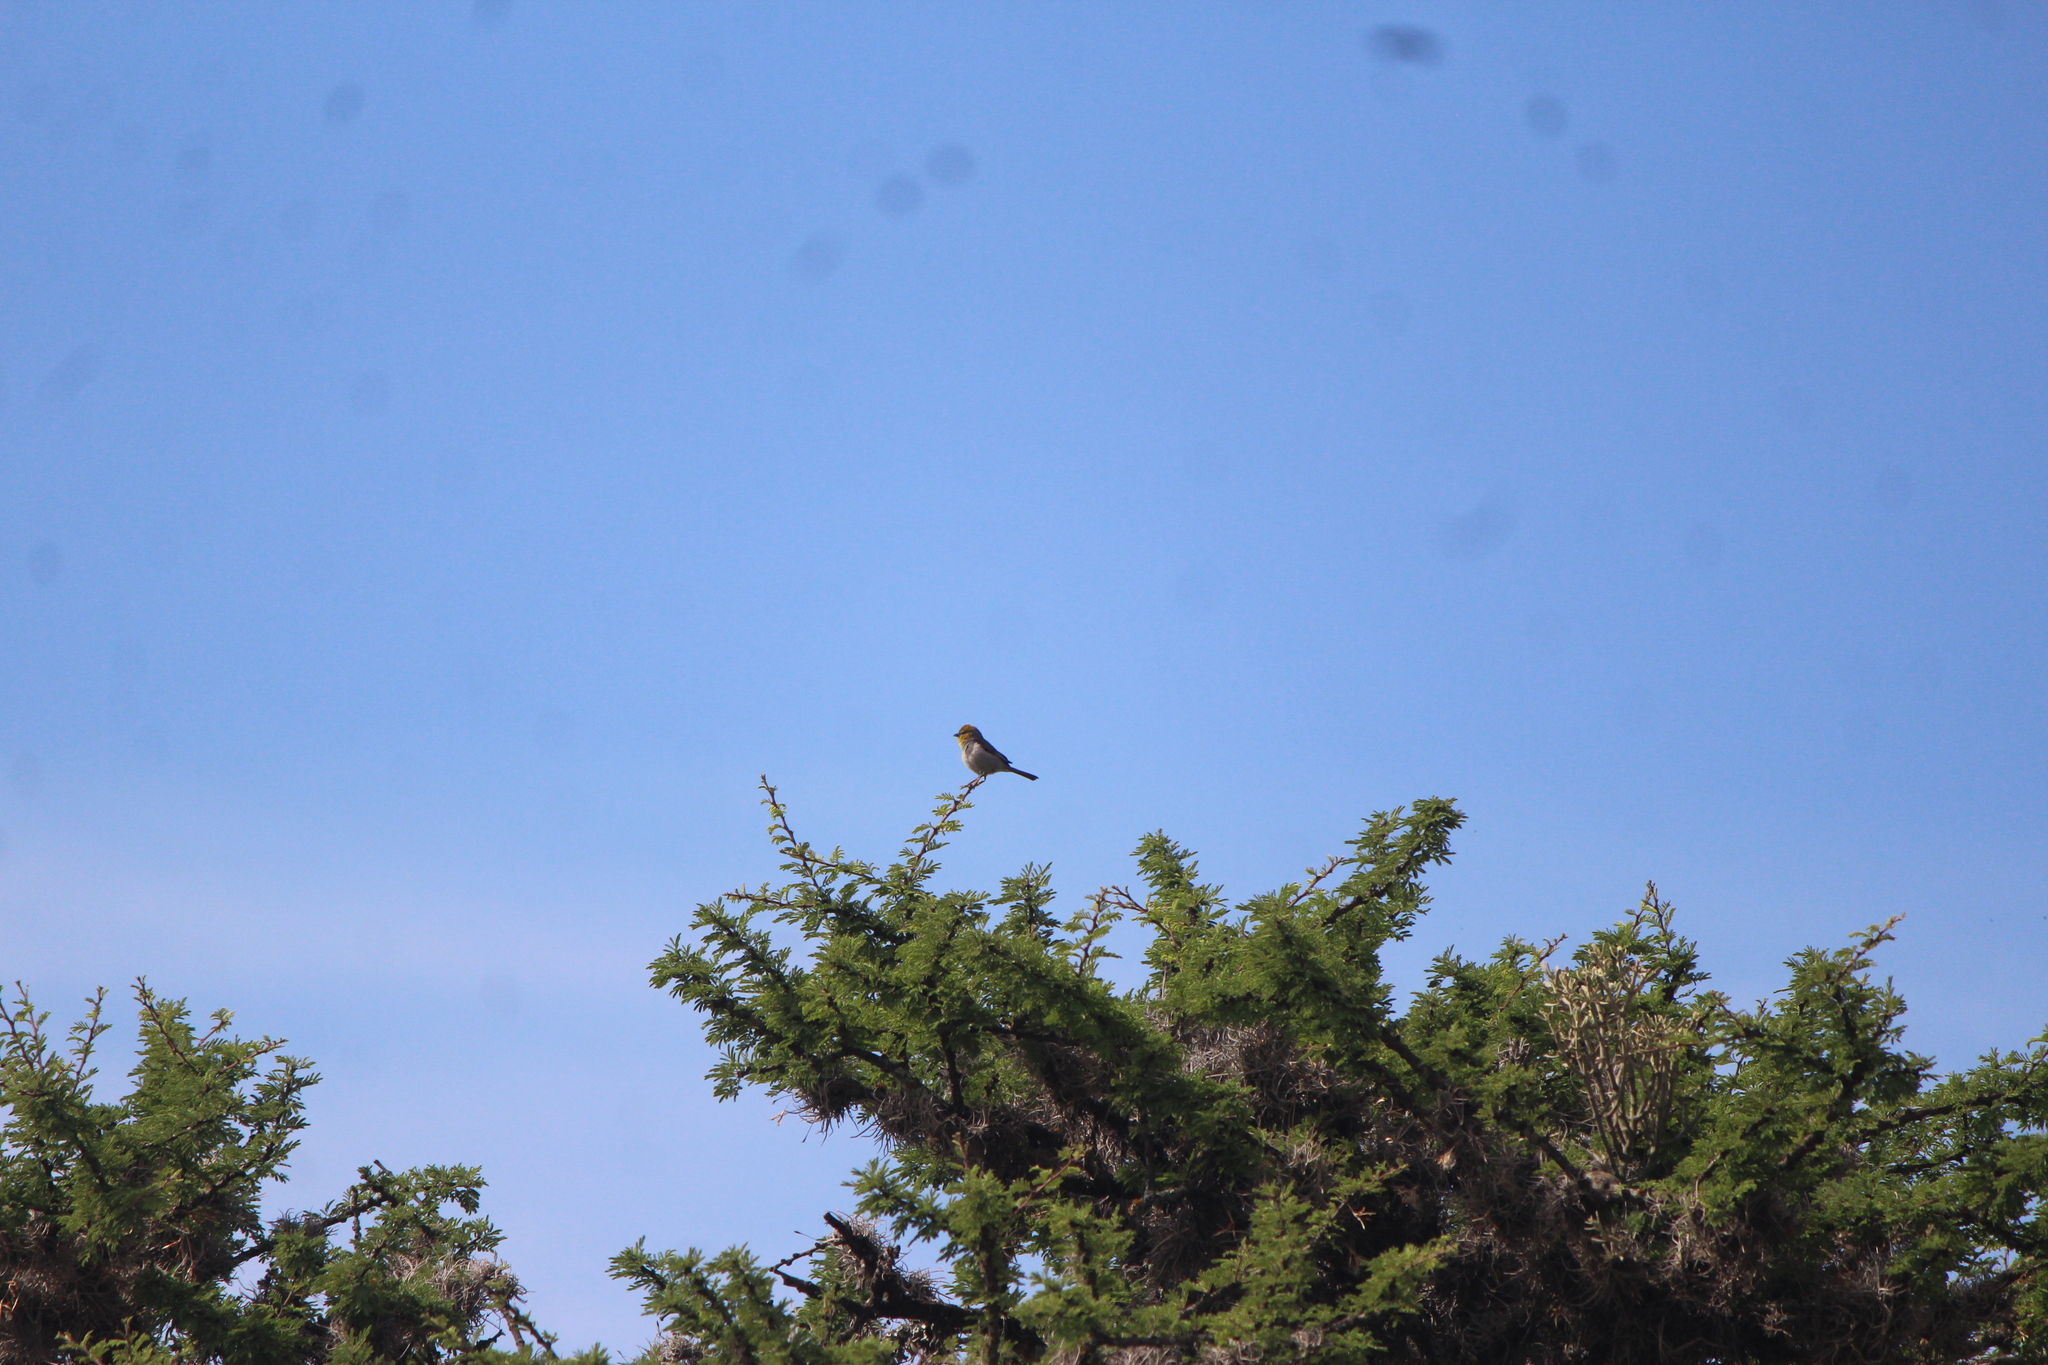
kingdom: Animalia
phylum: Chordata
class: Aves
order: Passeriformes
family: Remizidae
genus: Auriparus
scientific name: Auriparus flaviceps
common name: Verdin
